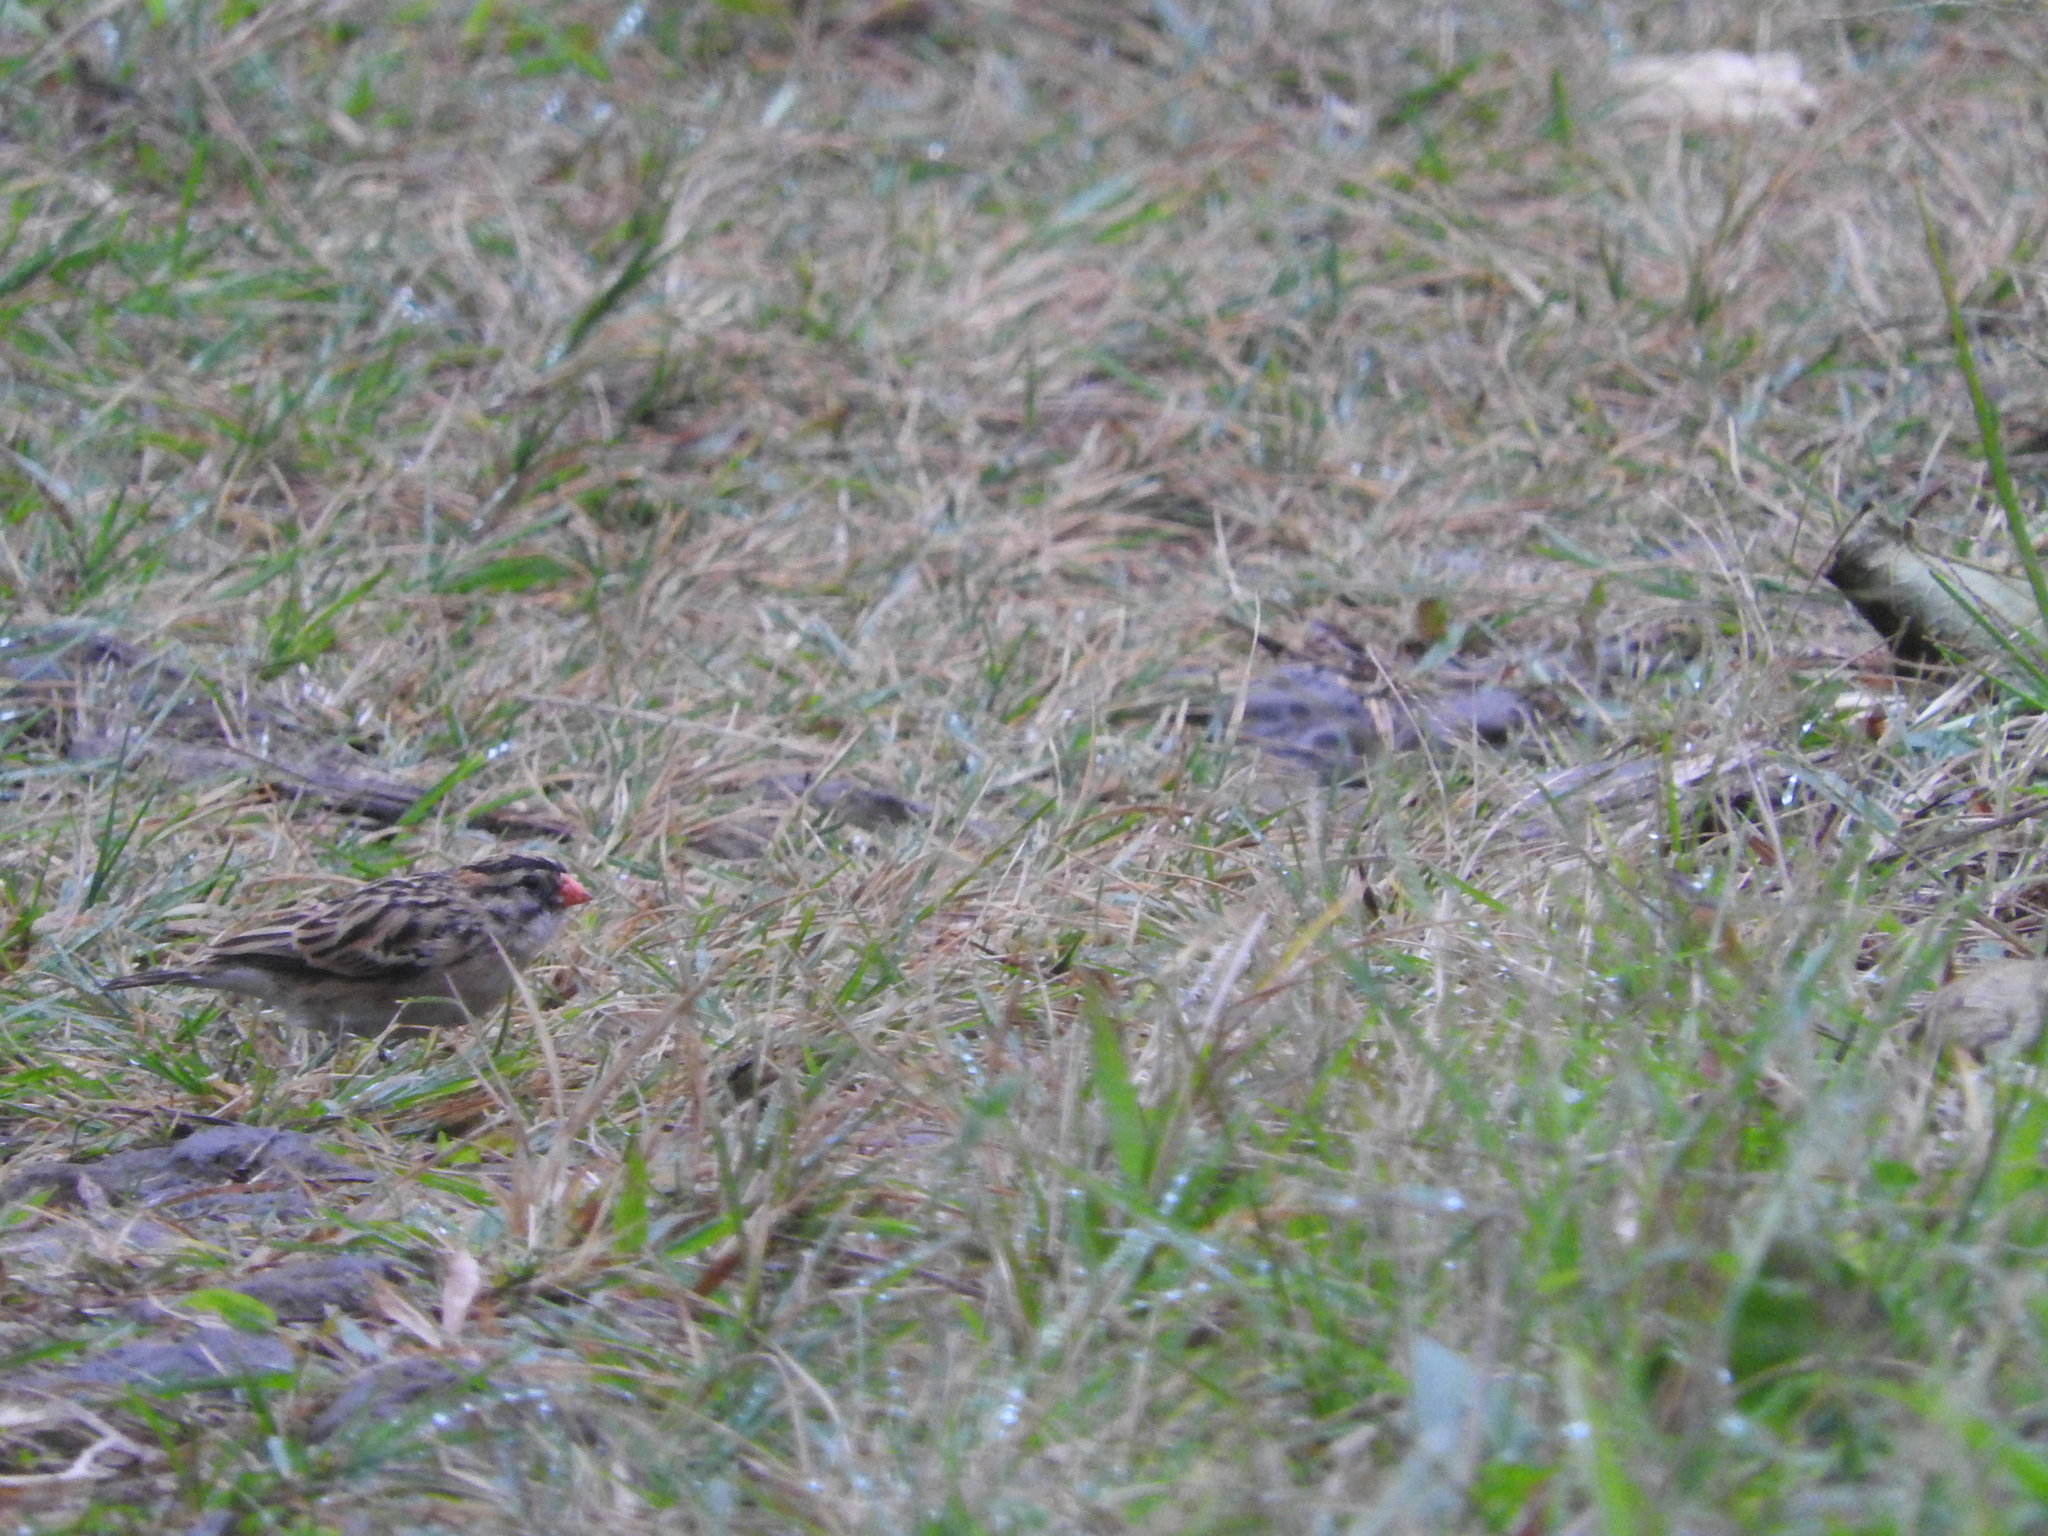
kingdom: Animalia
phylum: Chordata
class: Aves
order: Passeriformes
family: Viduidae
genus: Vidua
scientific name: Vidua macroura
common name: Pin-tailed whydah
